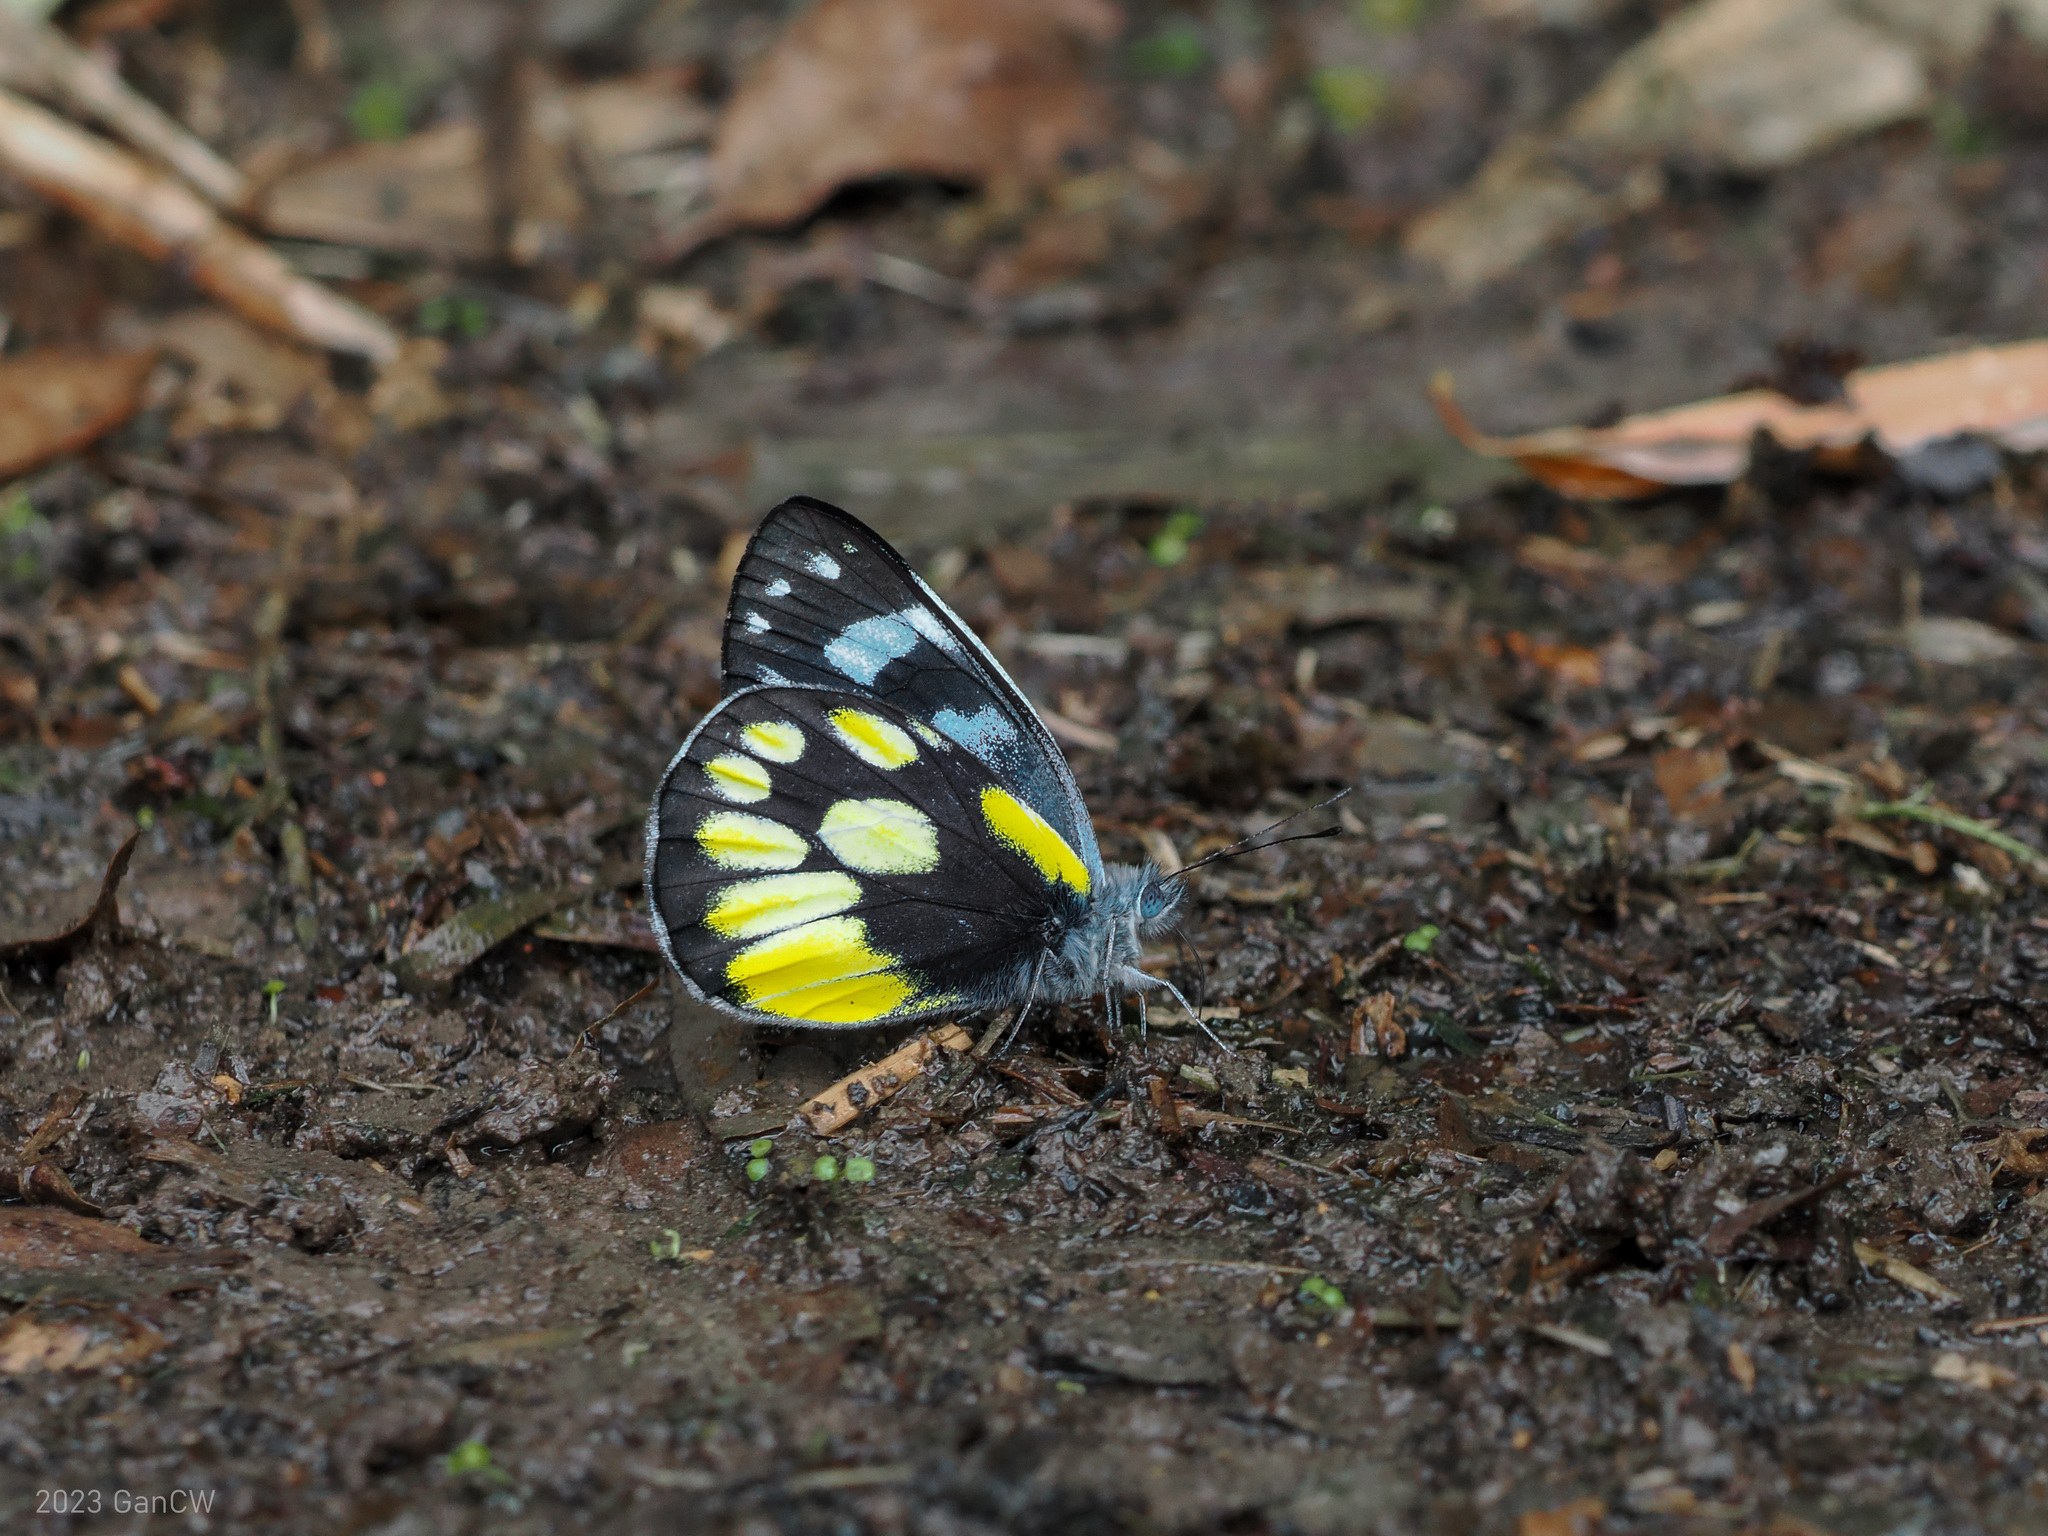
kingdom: Animalia
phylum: Arthropoda
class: Insecta
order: Lepidoptera
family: Pieridae
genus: Delias
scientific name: Delias cinerascens
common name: Kinabalu jezebel
